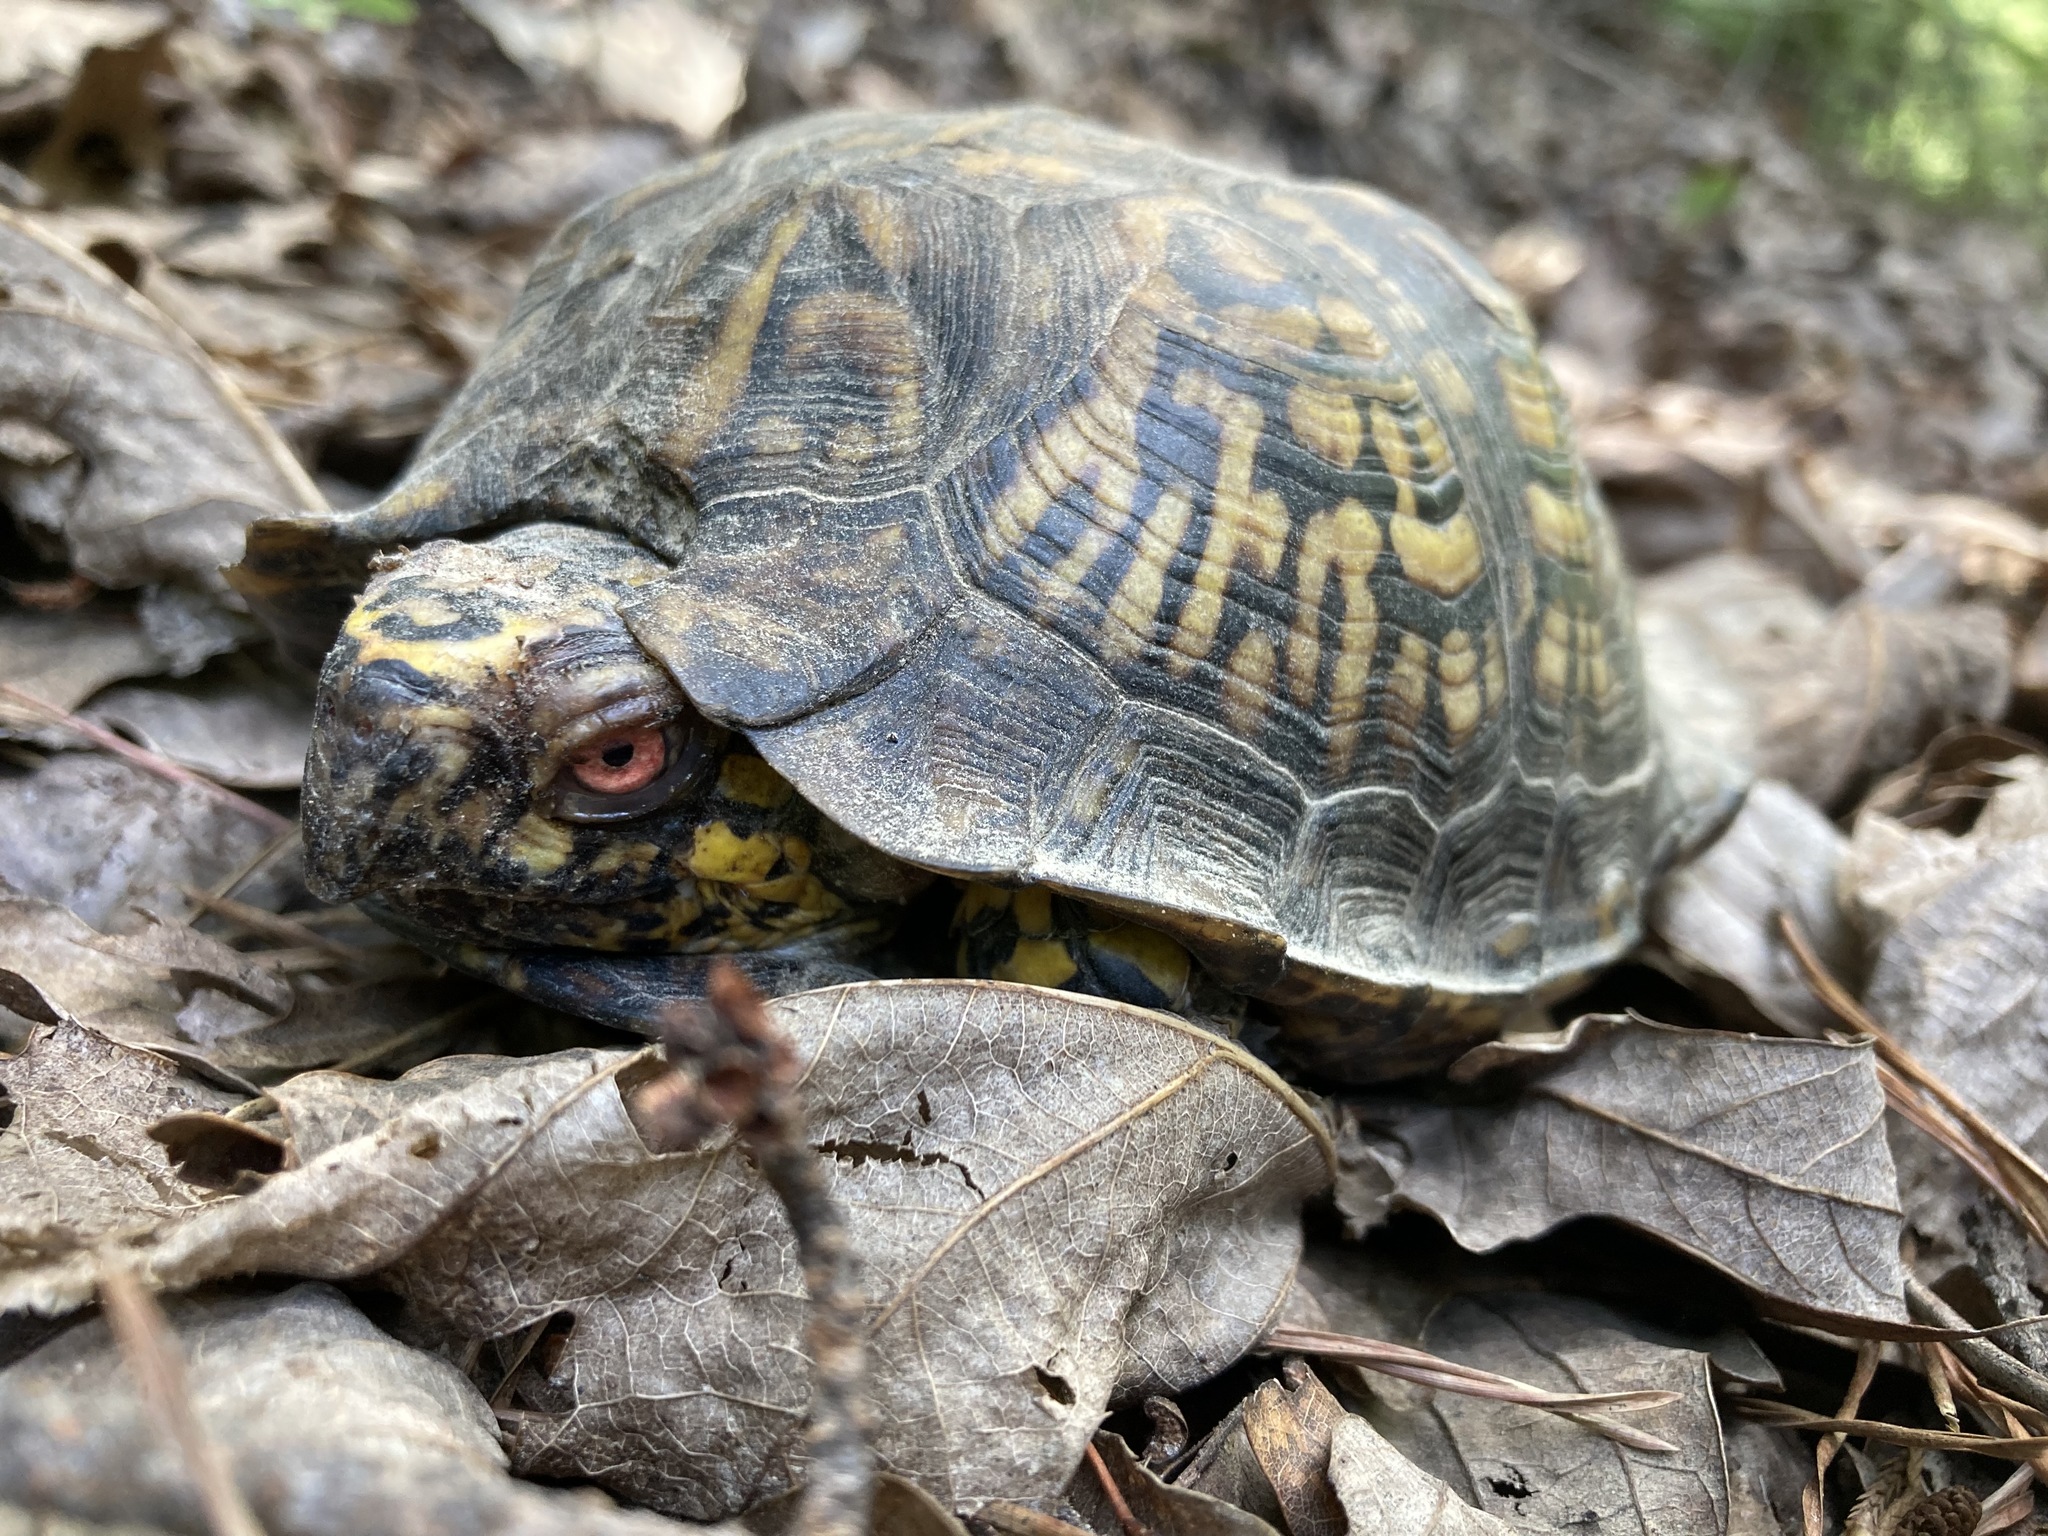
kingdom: Animalia
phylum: Chordata
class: Testudines
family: Emydidae
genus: Terrapene
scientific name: Terrapene carolina
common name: Common box turtle
